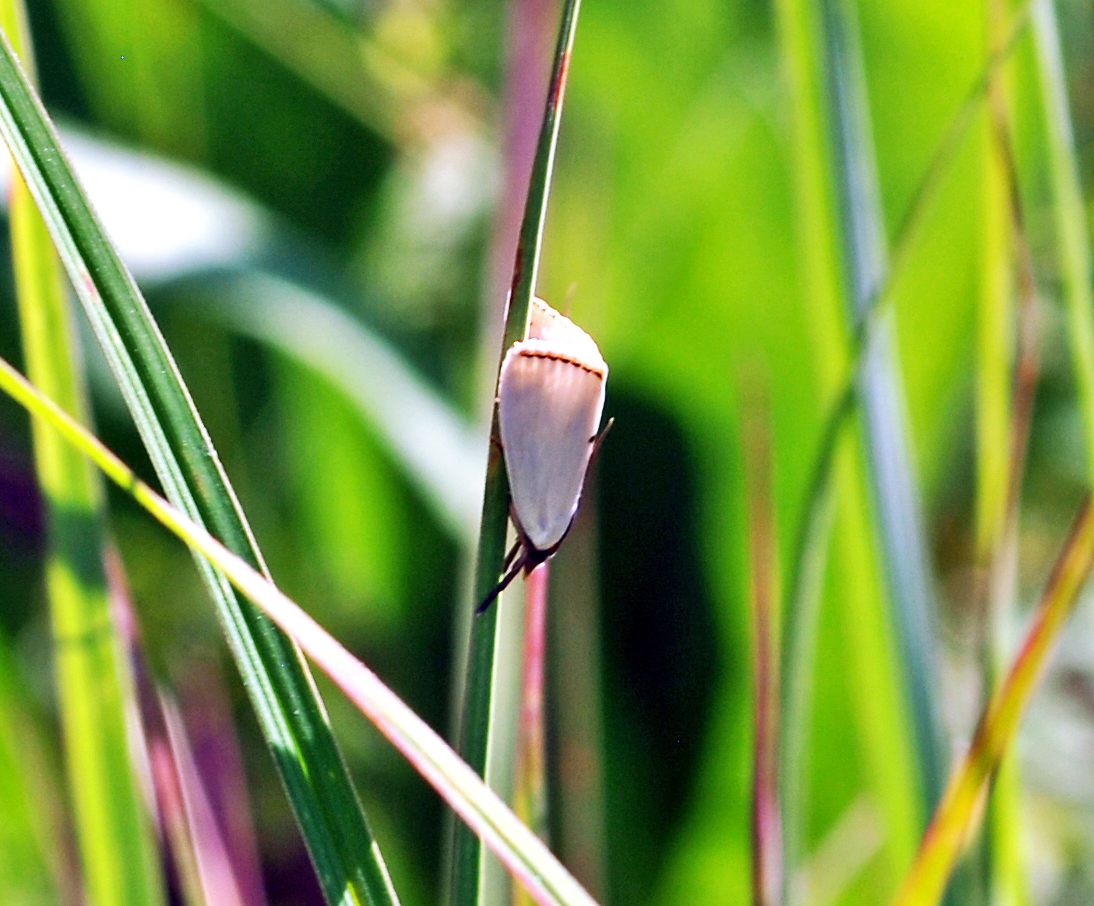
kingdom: Animalia
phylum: Arthropoda
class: Insecta
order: Lepidoptera
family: Crambidae
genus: Argyria
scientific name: Argyria nivalis
